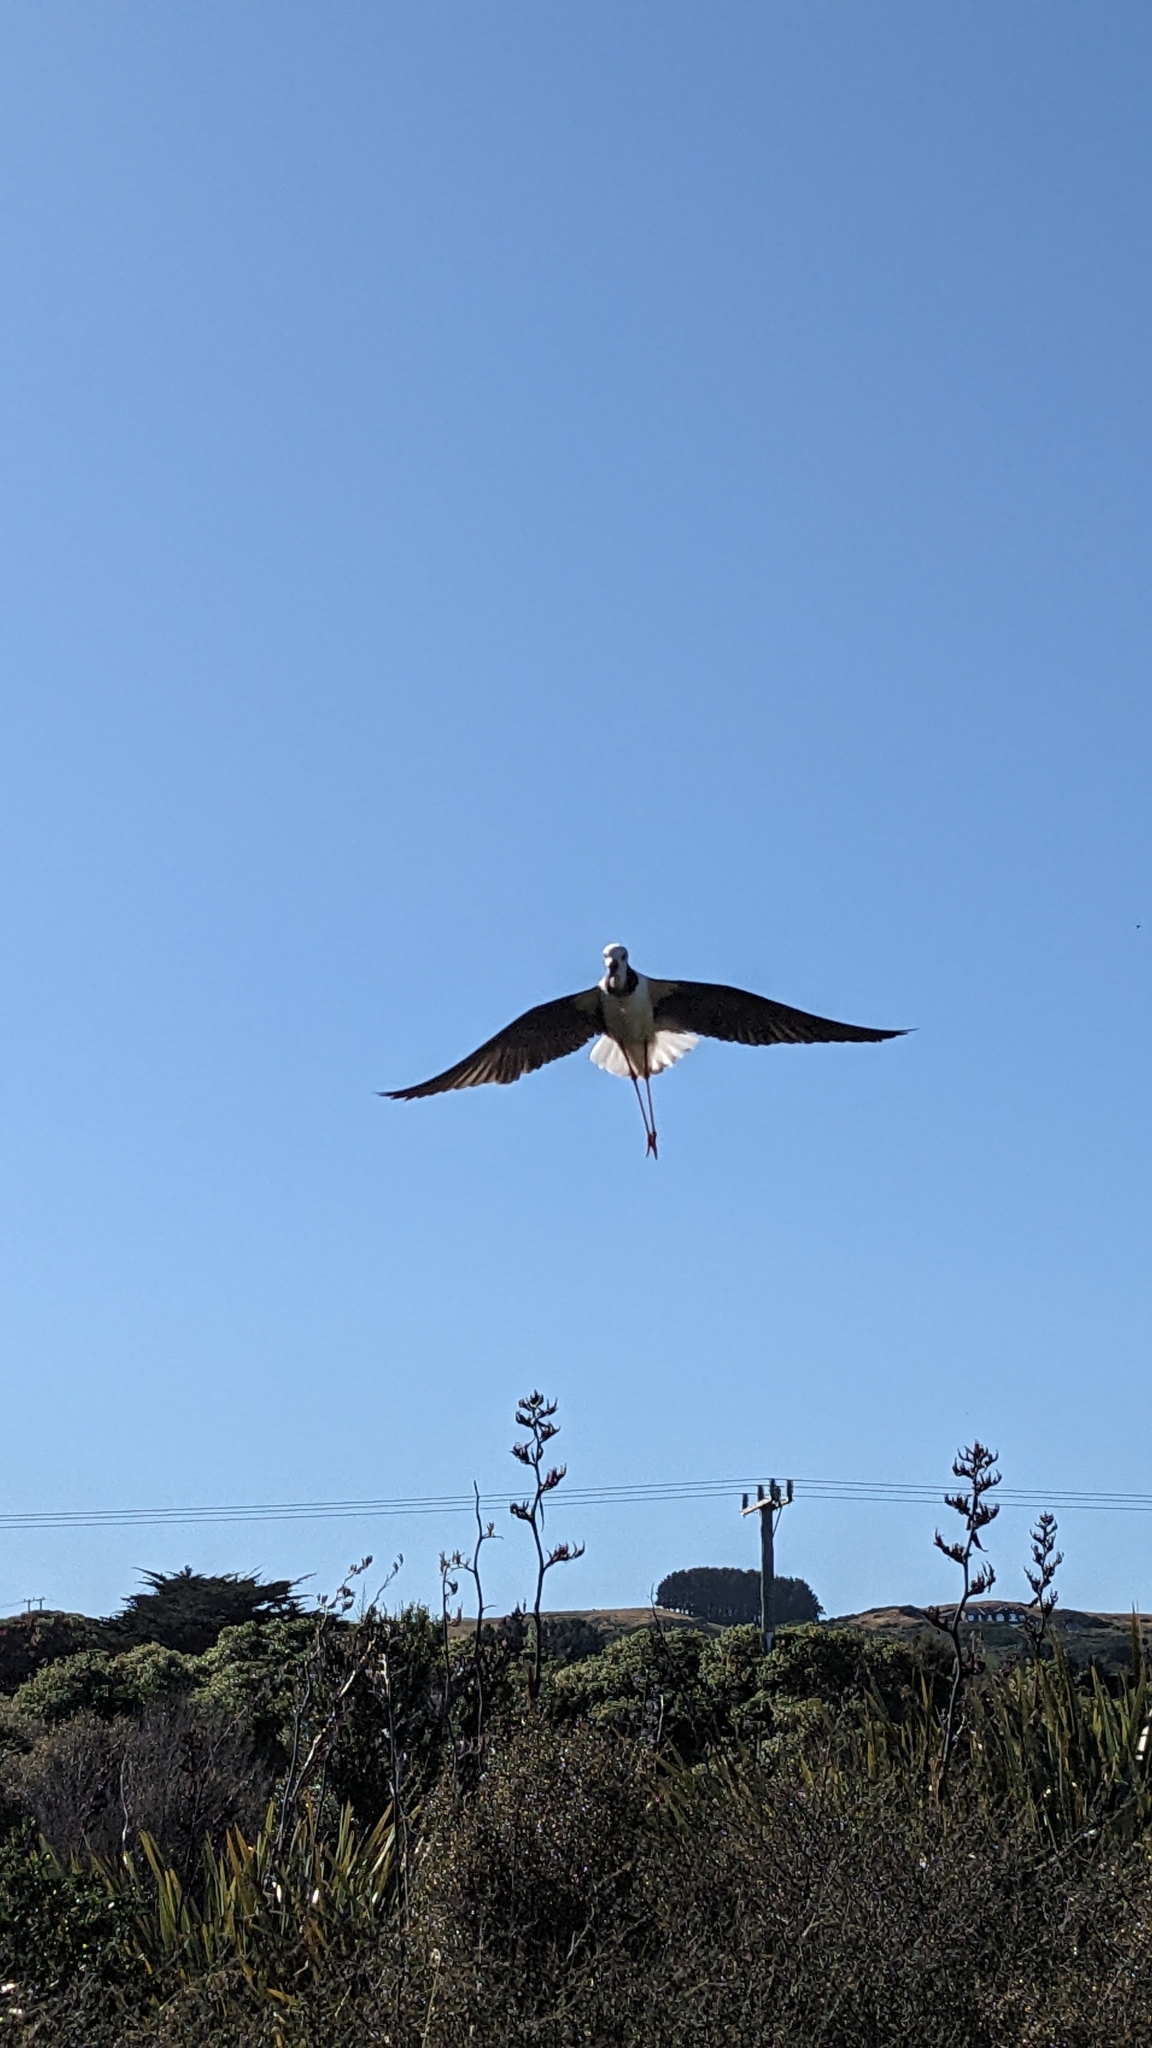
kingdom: Animalia
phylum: Chordata
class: Aves
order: Charadriiformes
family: Recurvirostridae
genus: Himantopus
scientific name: Himantopus leucocephalus
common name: White-headed stilt
